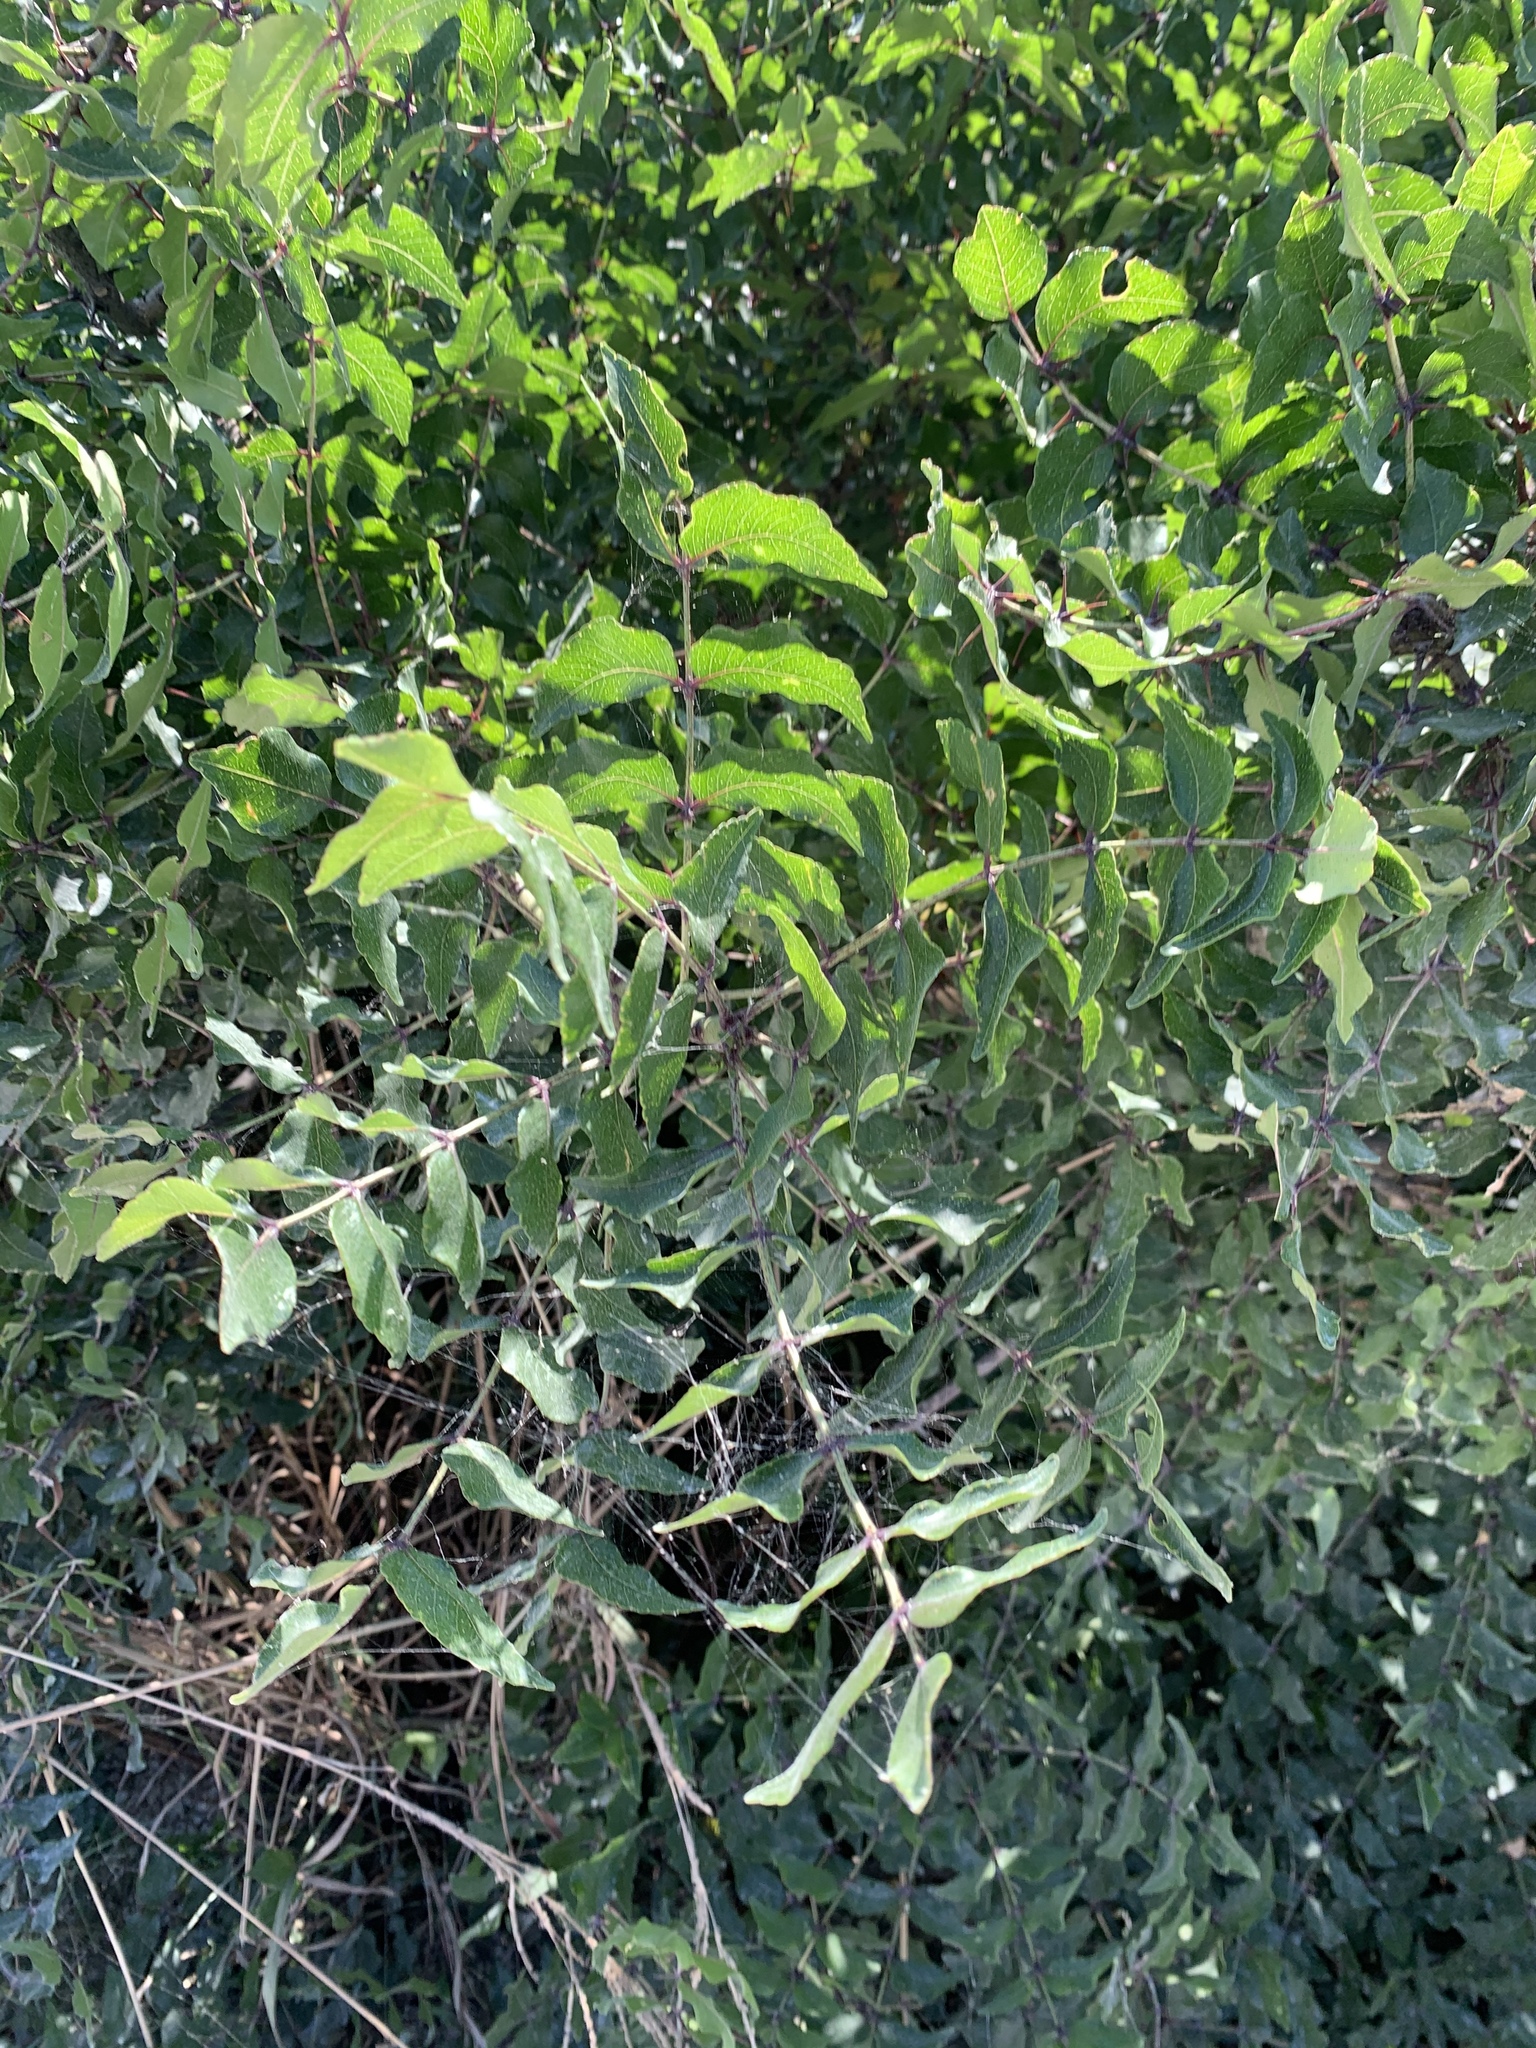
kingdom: Plantae
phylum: Tracheophyta
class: Magnoliopsida
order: Sapindales
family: Rutaceae
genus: Zanthoxylum
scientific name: Zanthoxylum clava-herculis
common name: Hercules'-club
